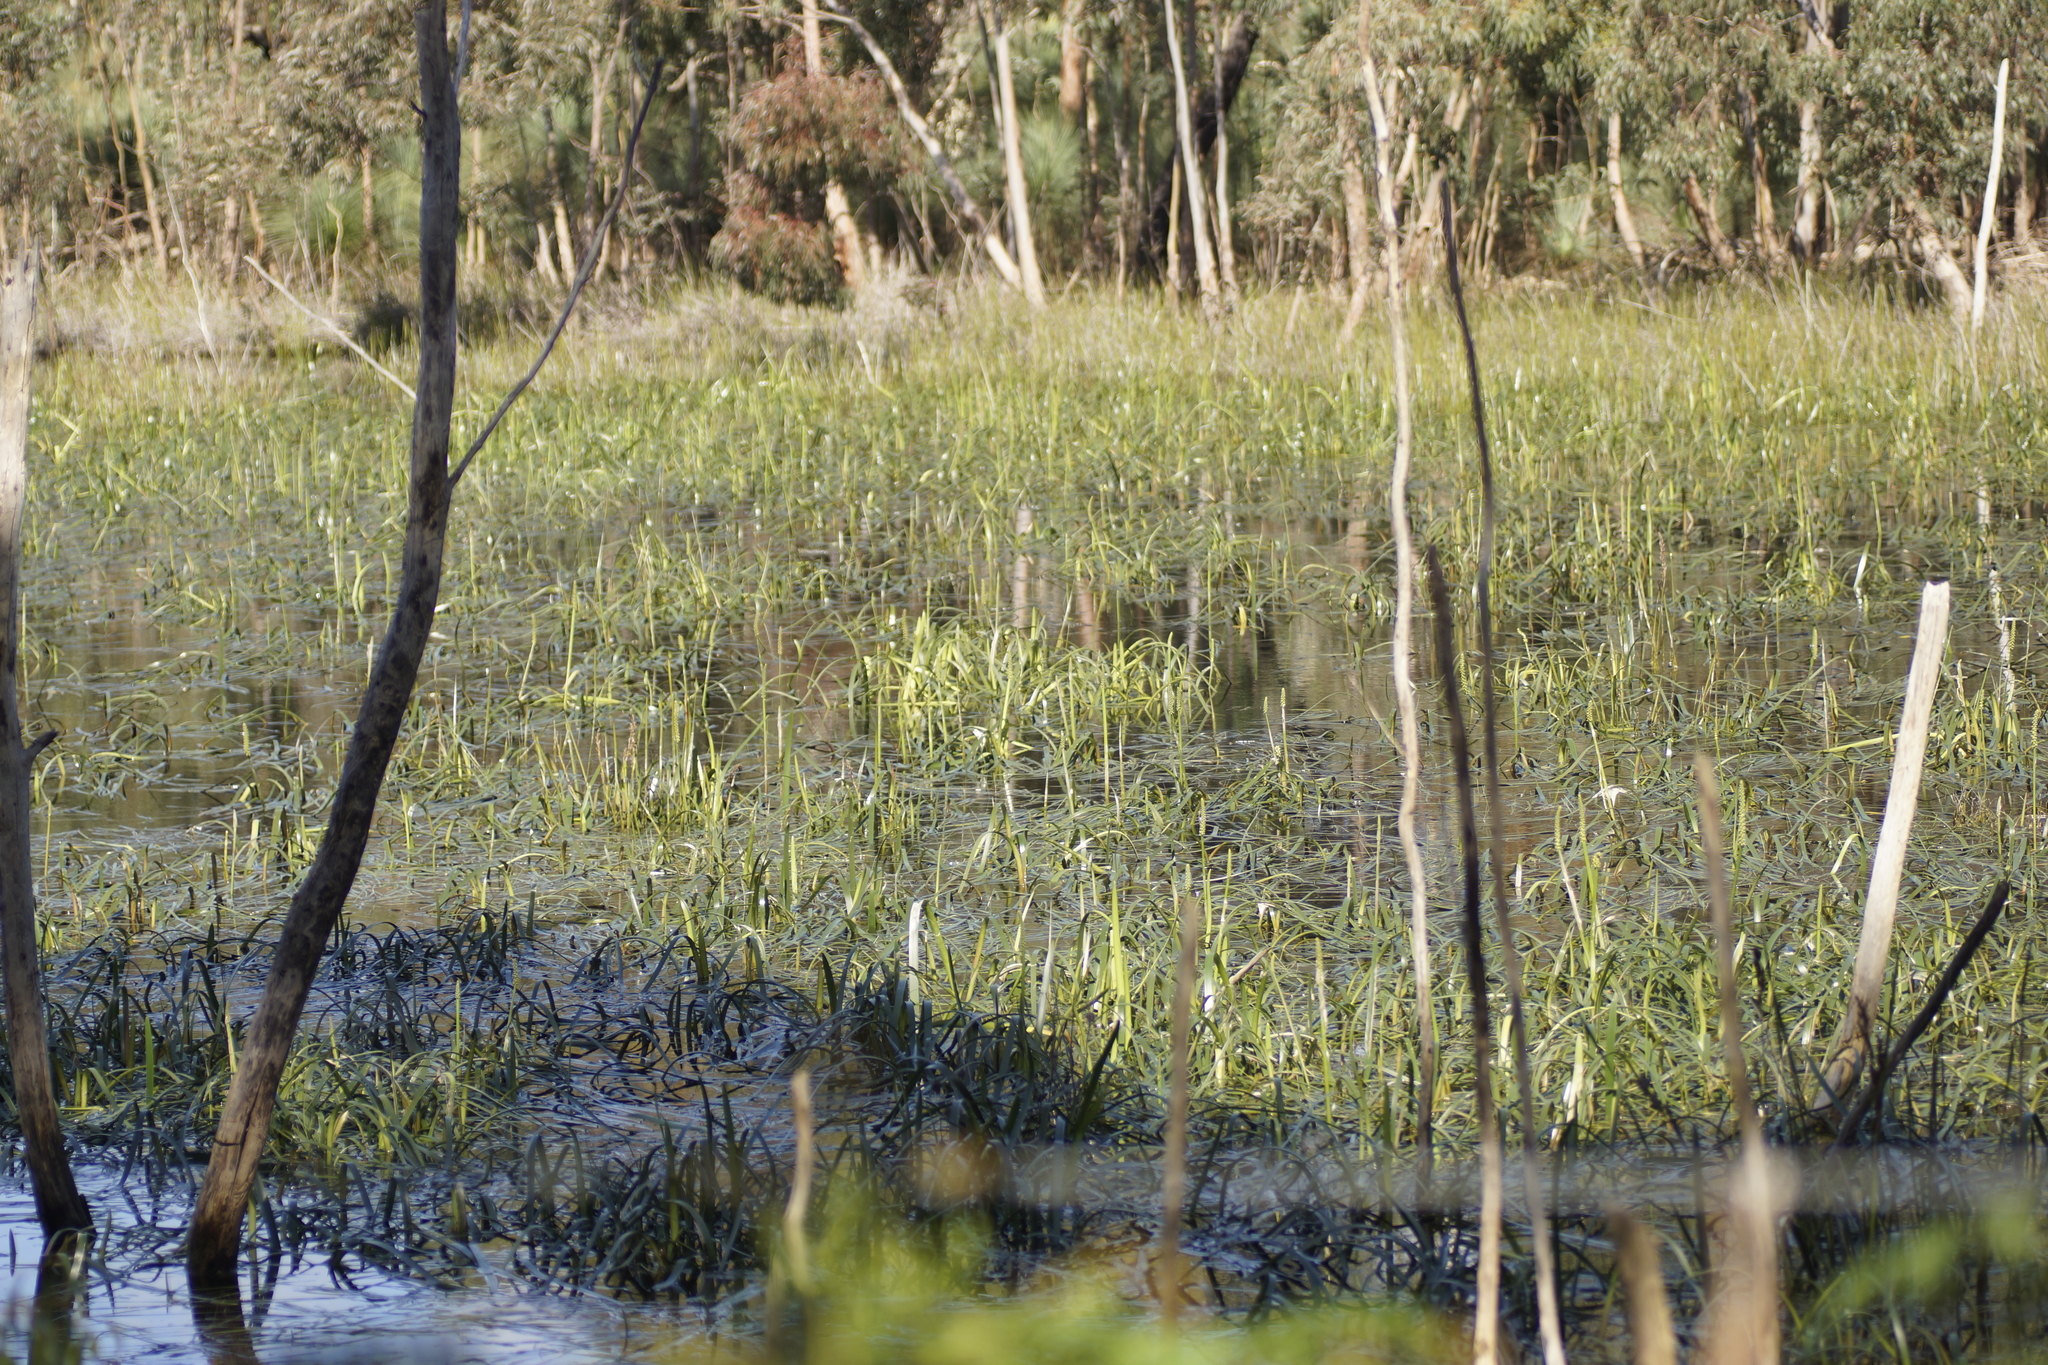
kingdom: Plantae
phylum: Tracheophyta
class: Liliopsida
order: Alismatales
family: Juncaginaceae
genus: Cycnogeton
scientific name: Cycnogeton procerum
